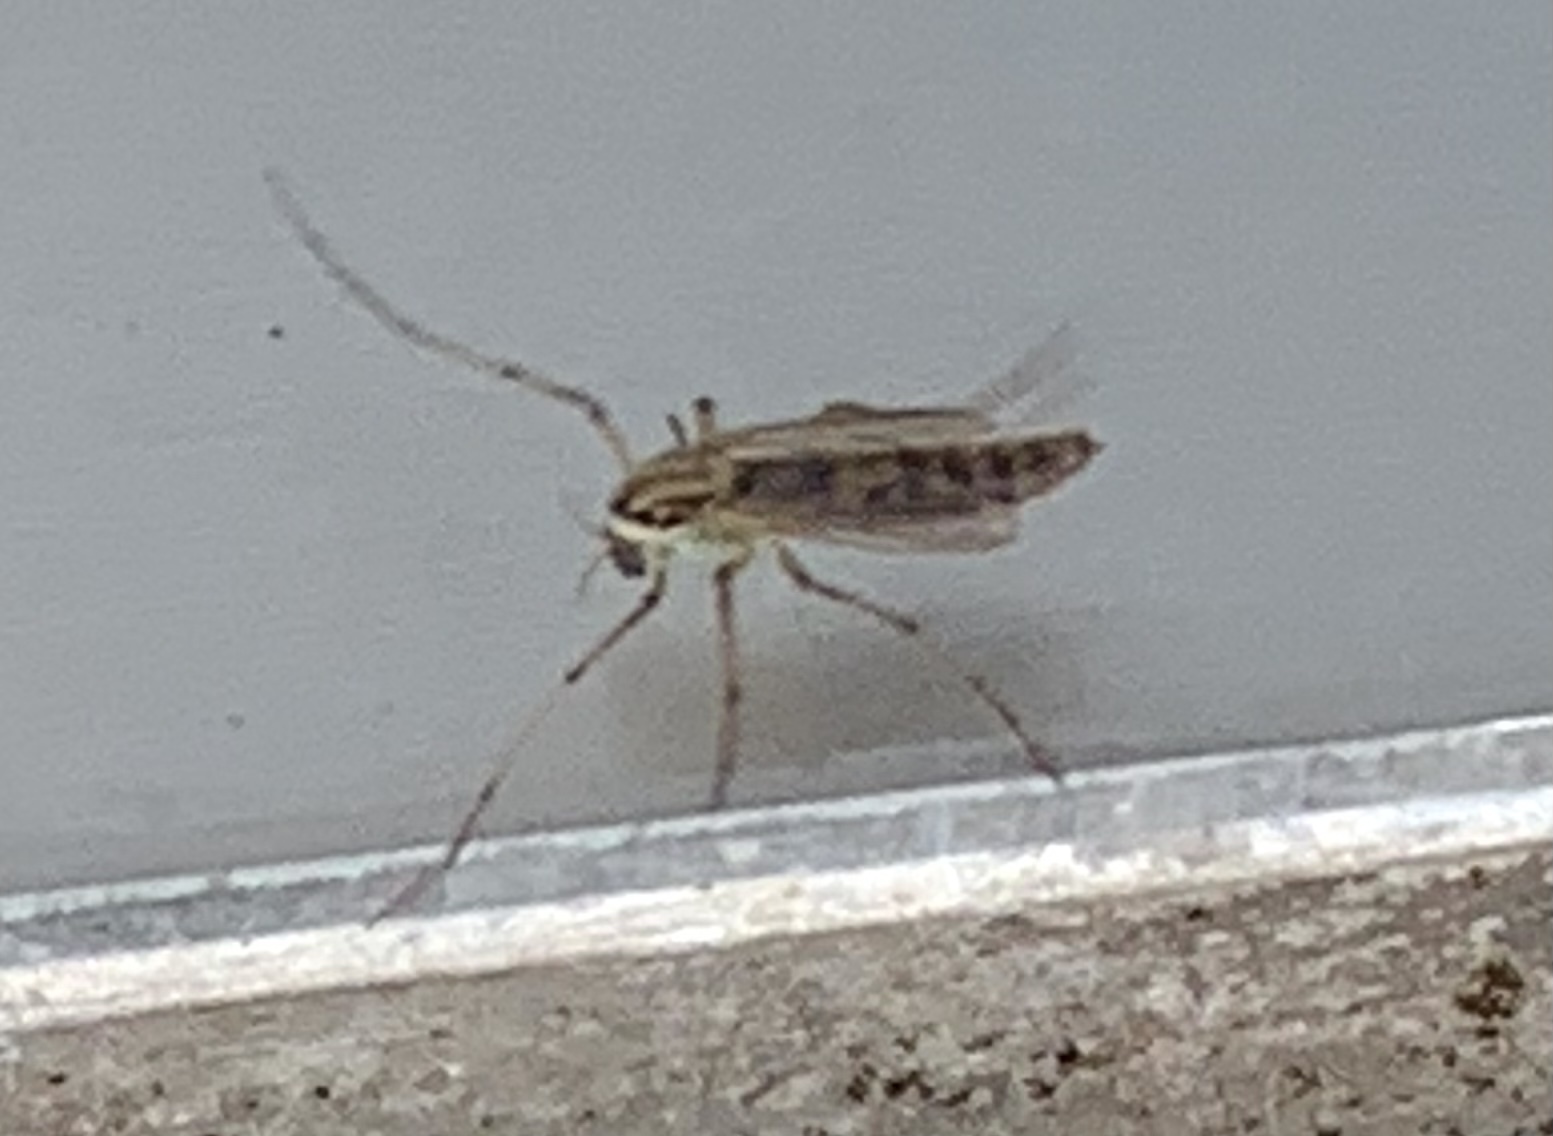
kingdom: Animalia
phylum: Arthropoda
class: Insecta
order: Diptera
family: Chironomidae
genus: Goeldichironomus
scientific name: Goeldichironomus carus
